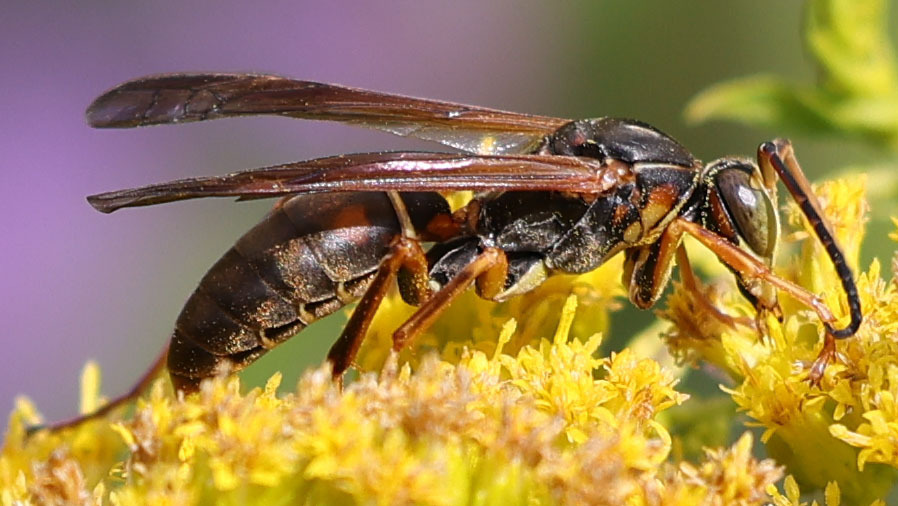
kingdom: Animalia
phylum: Arthropoda
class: Insecta
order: Hymenoptera
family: Eumenidae
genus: Polistes
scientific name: Polistes fuscatus
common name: Dark paper wasp
